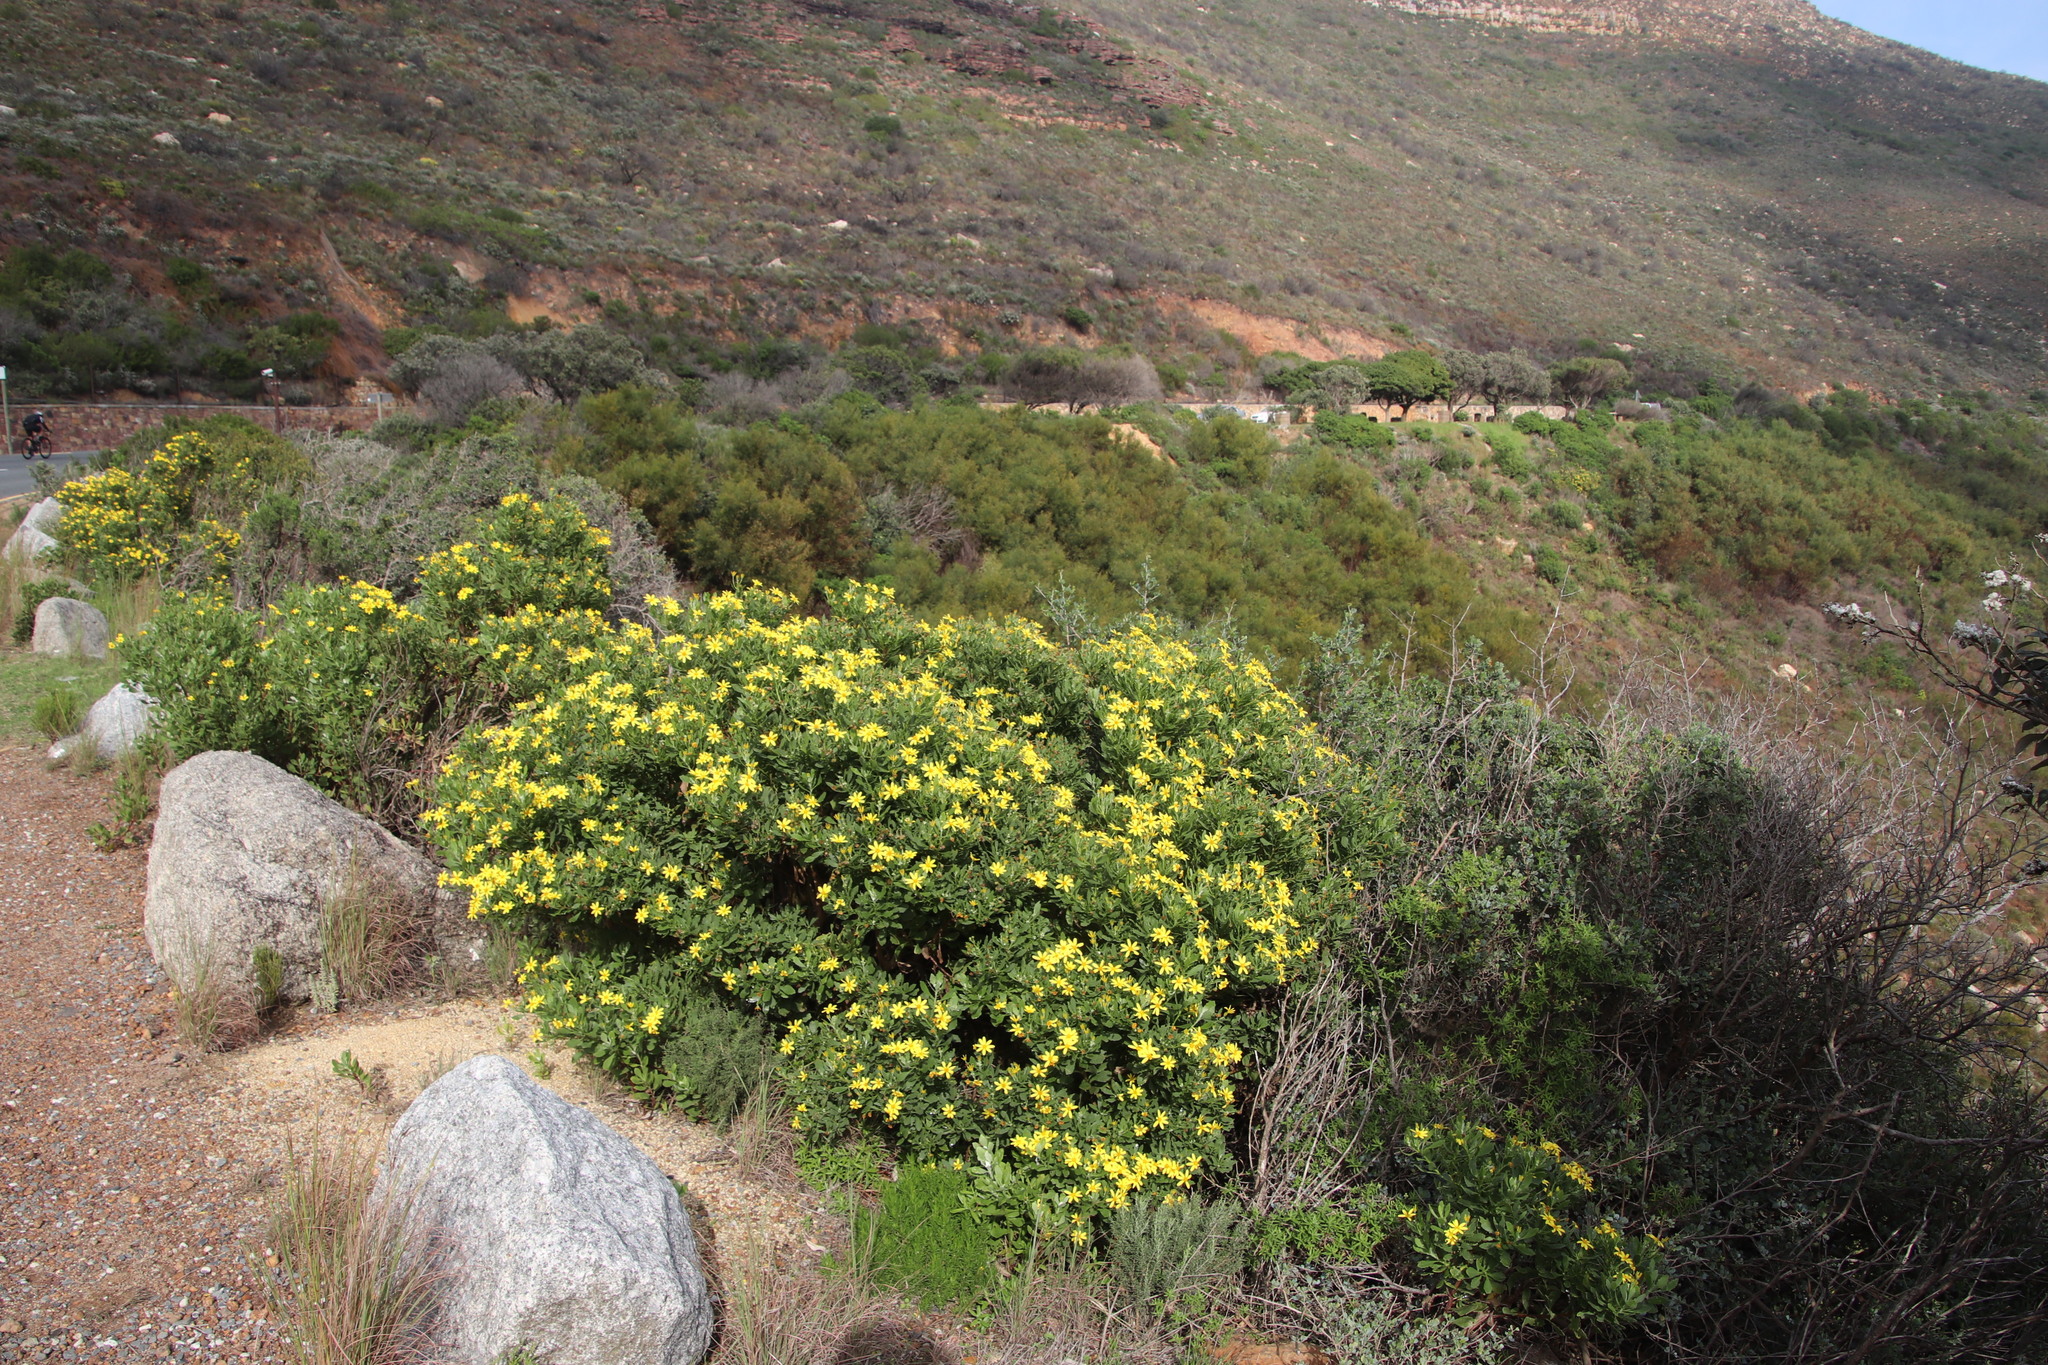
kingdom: Plantae
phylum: Tracheophyta
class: Magnoliopsida
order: Asterales
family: Asteraceae
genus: Osteospermum
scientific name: Osteospermum moniliferum
